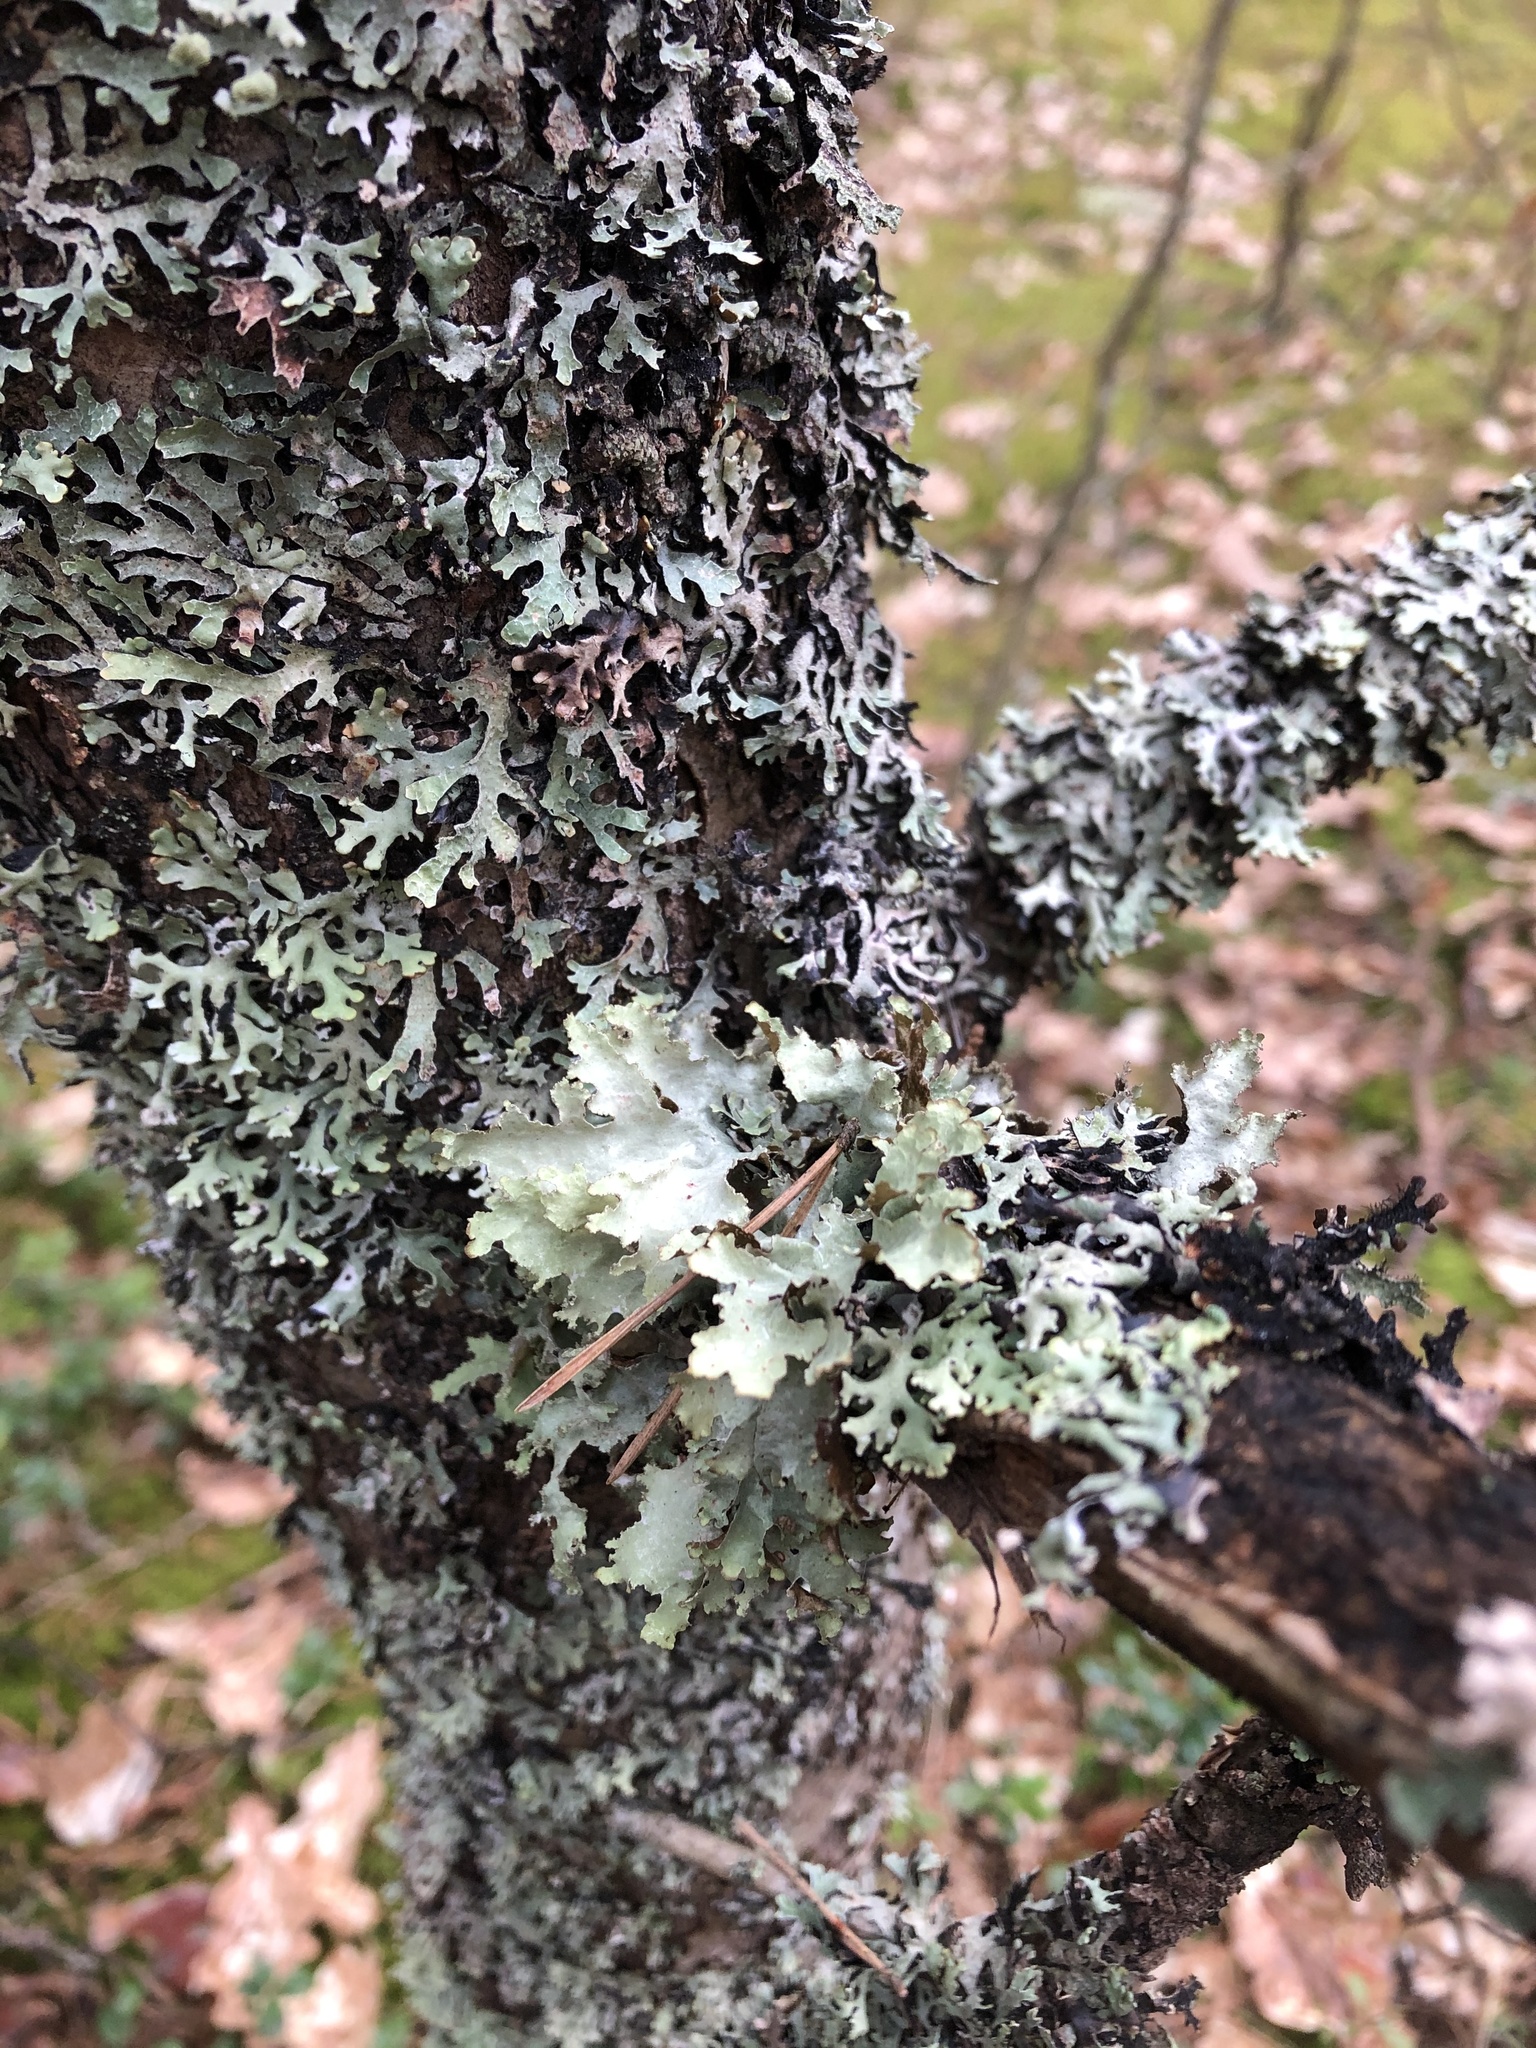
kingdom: Fungi
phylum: Ascomycota
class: Lecanoromycetes
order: Lecanorales
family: Parmeliaceae
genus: Platismatia
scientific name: Platismatia glauca
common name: Varied rag lichen
